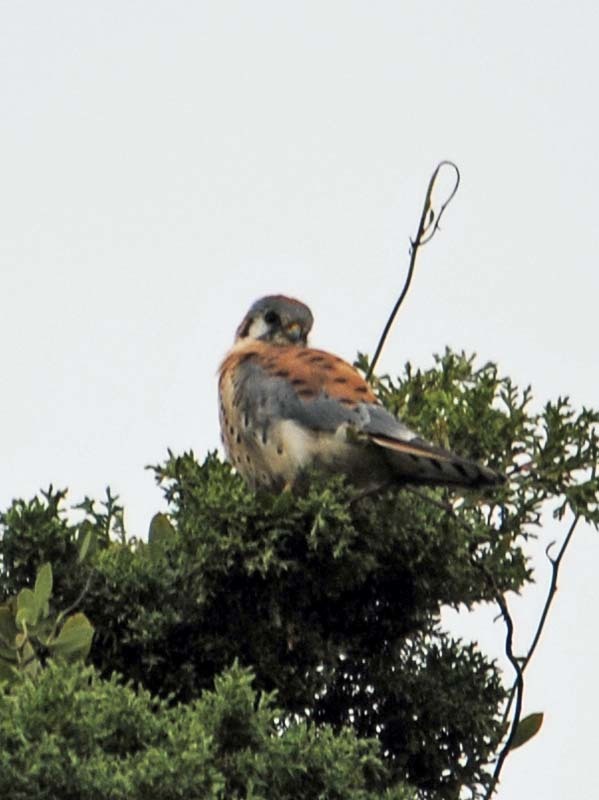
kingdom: Animalia
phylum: Chordata
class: Aves
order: Falconiformes
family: Falconidae
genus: Falco
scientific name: Falco sparverius
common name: American kestrel
